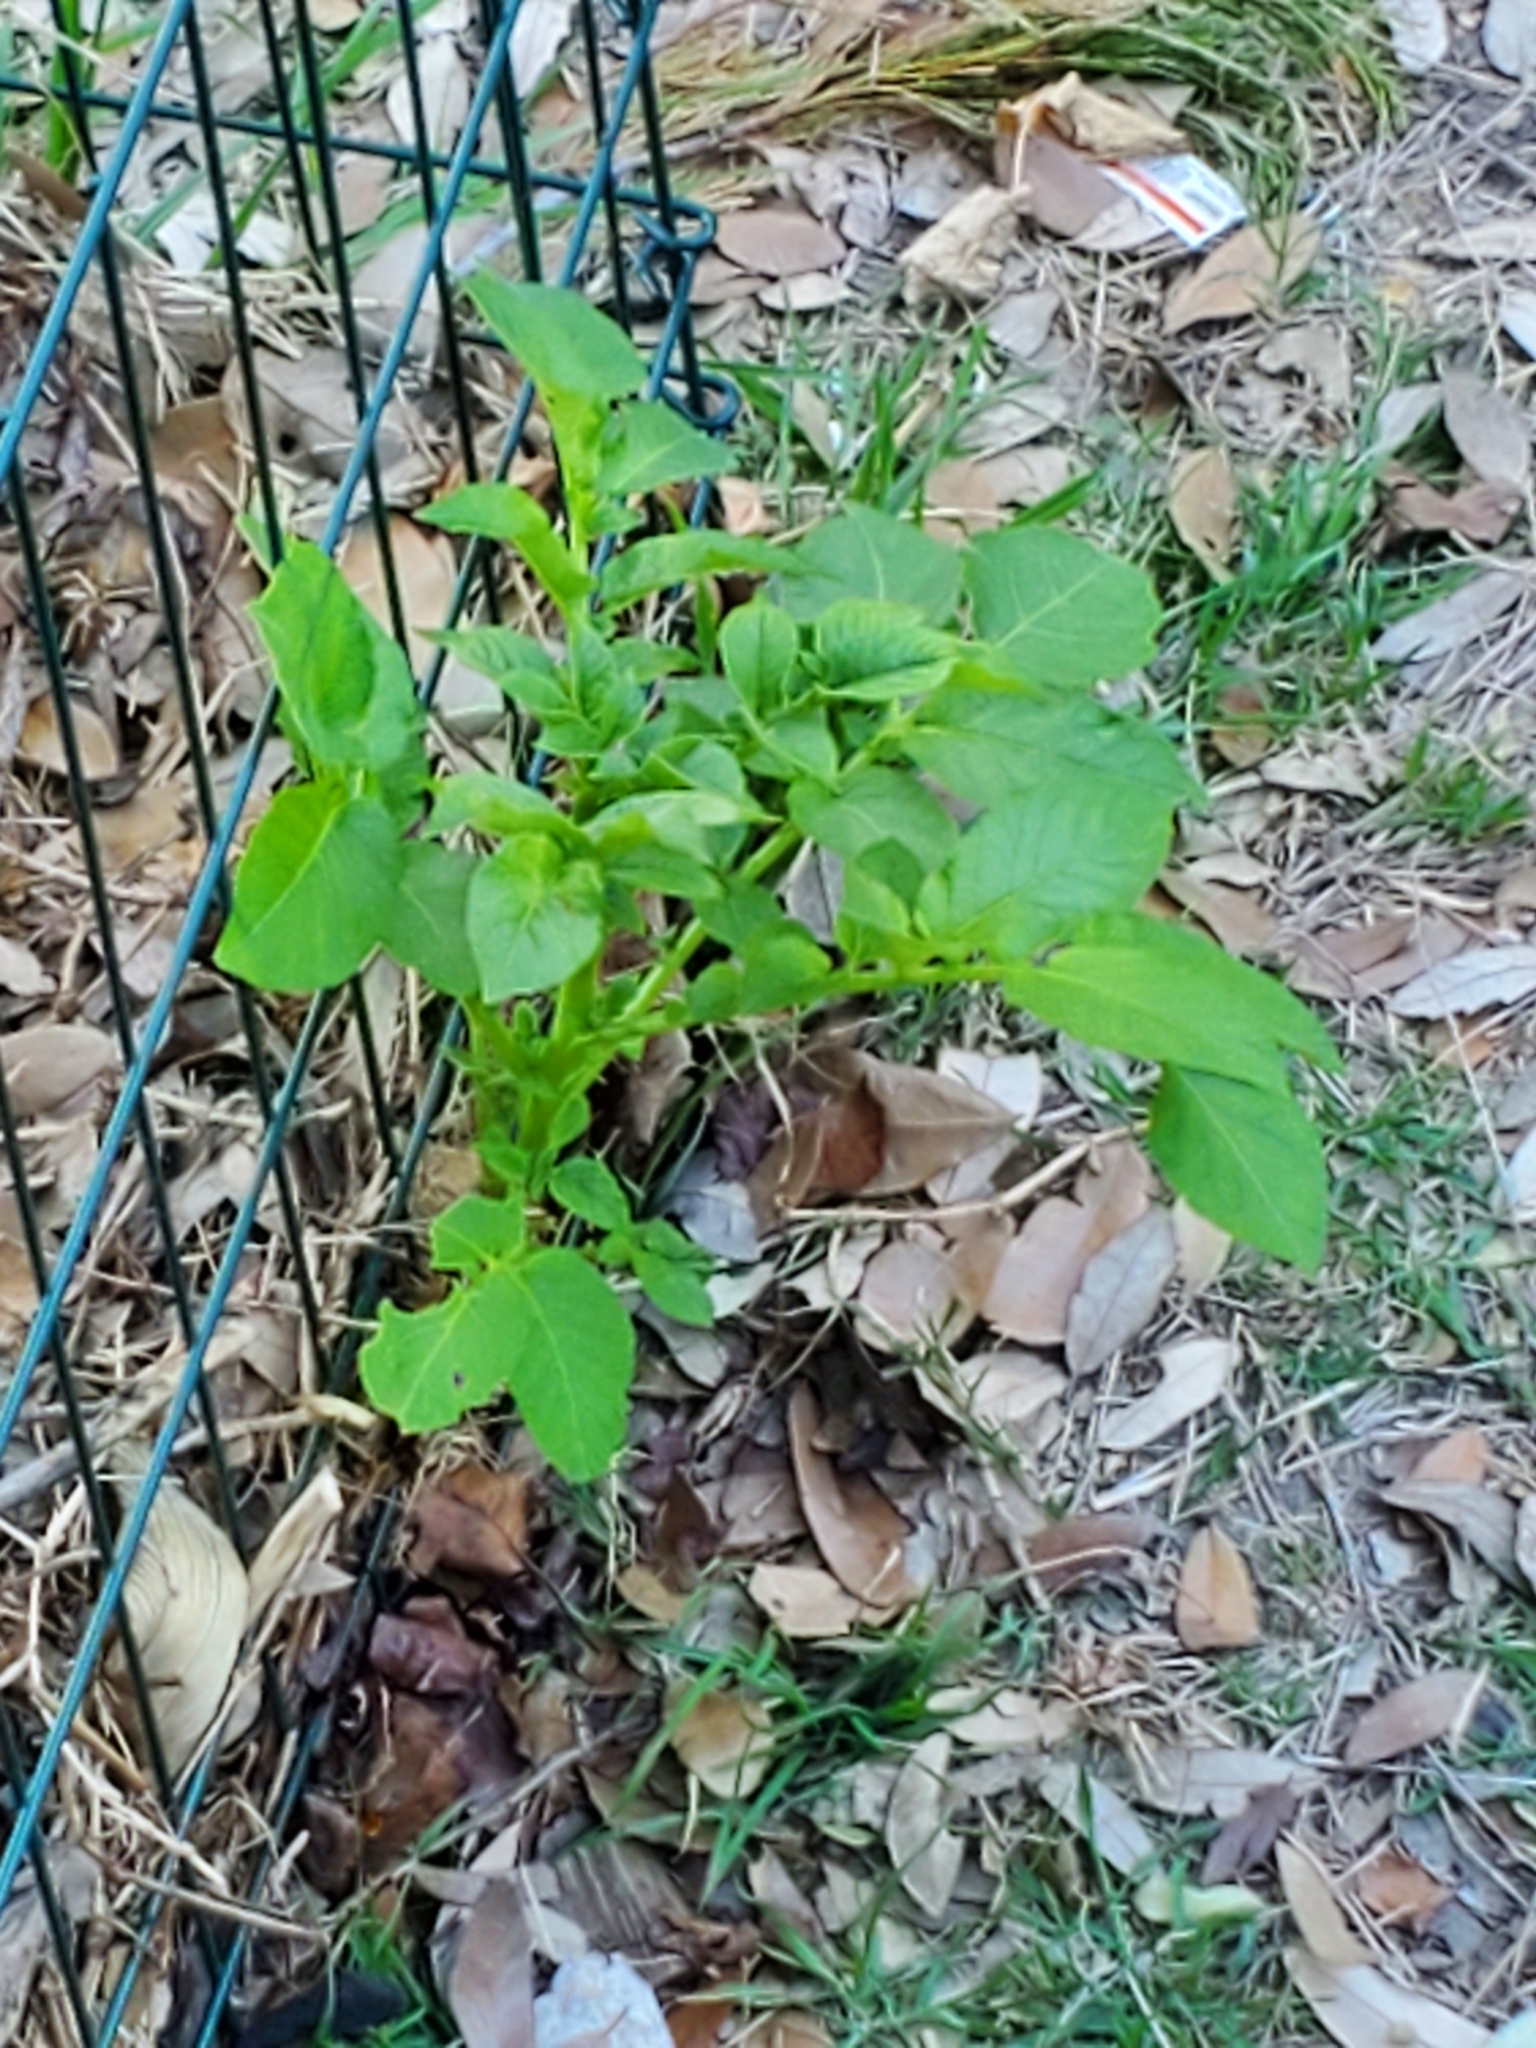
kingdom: Plantae
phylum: Tracheophyta
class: Magnoliopsida
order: Solanales
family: Solanaceae
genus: Solanum
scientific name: Solanum tuberosum
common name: Potato
